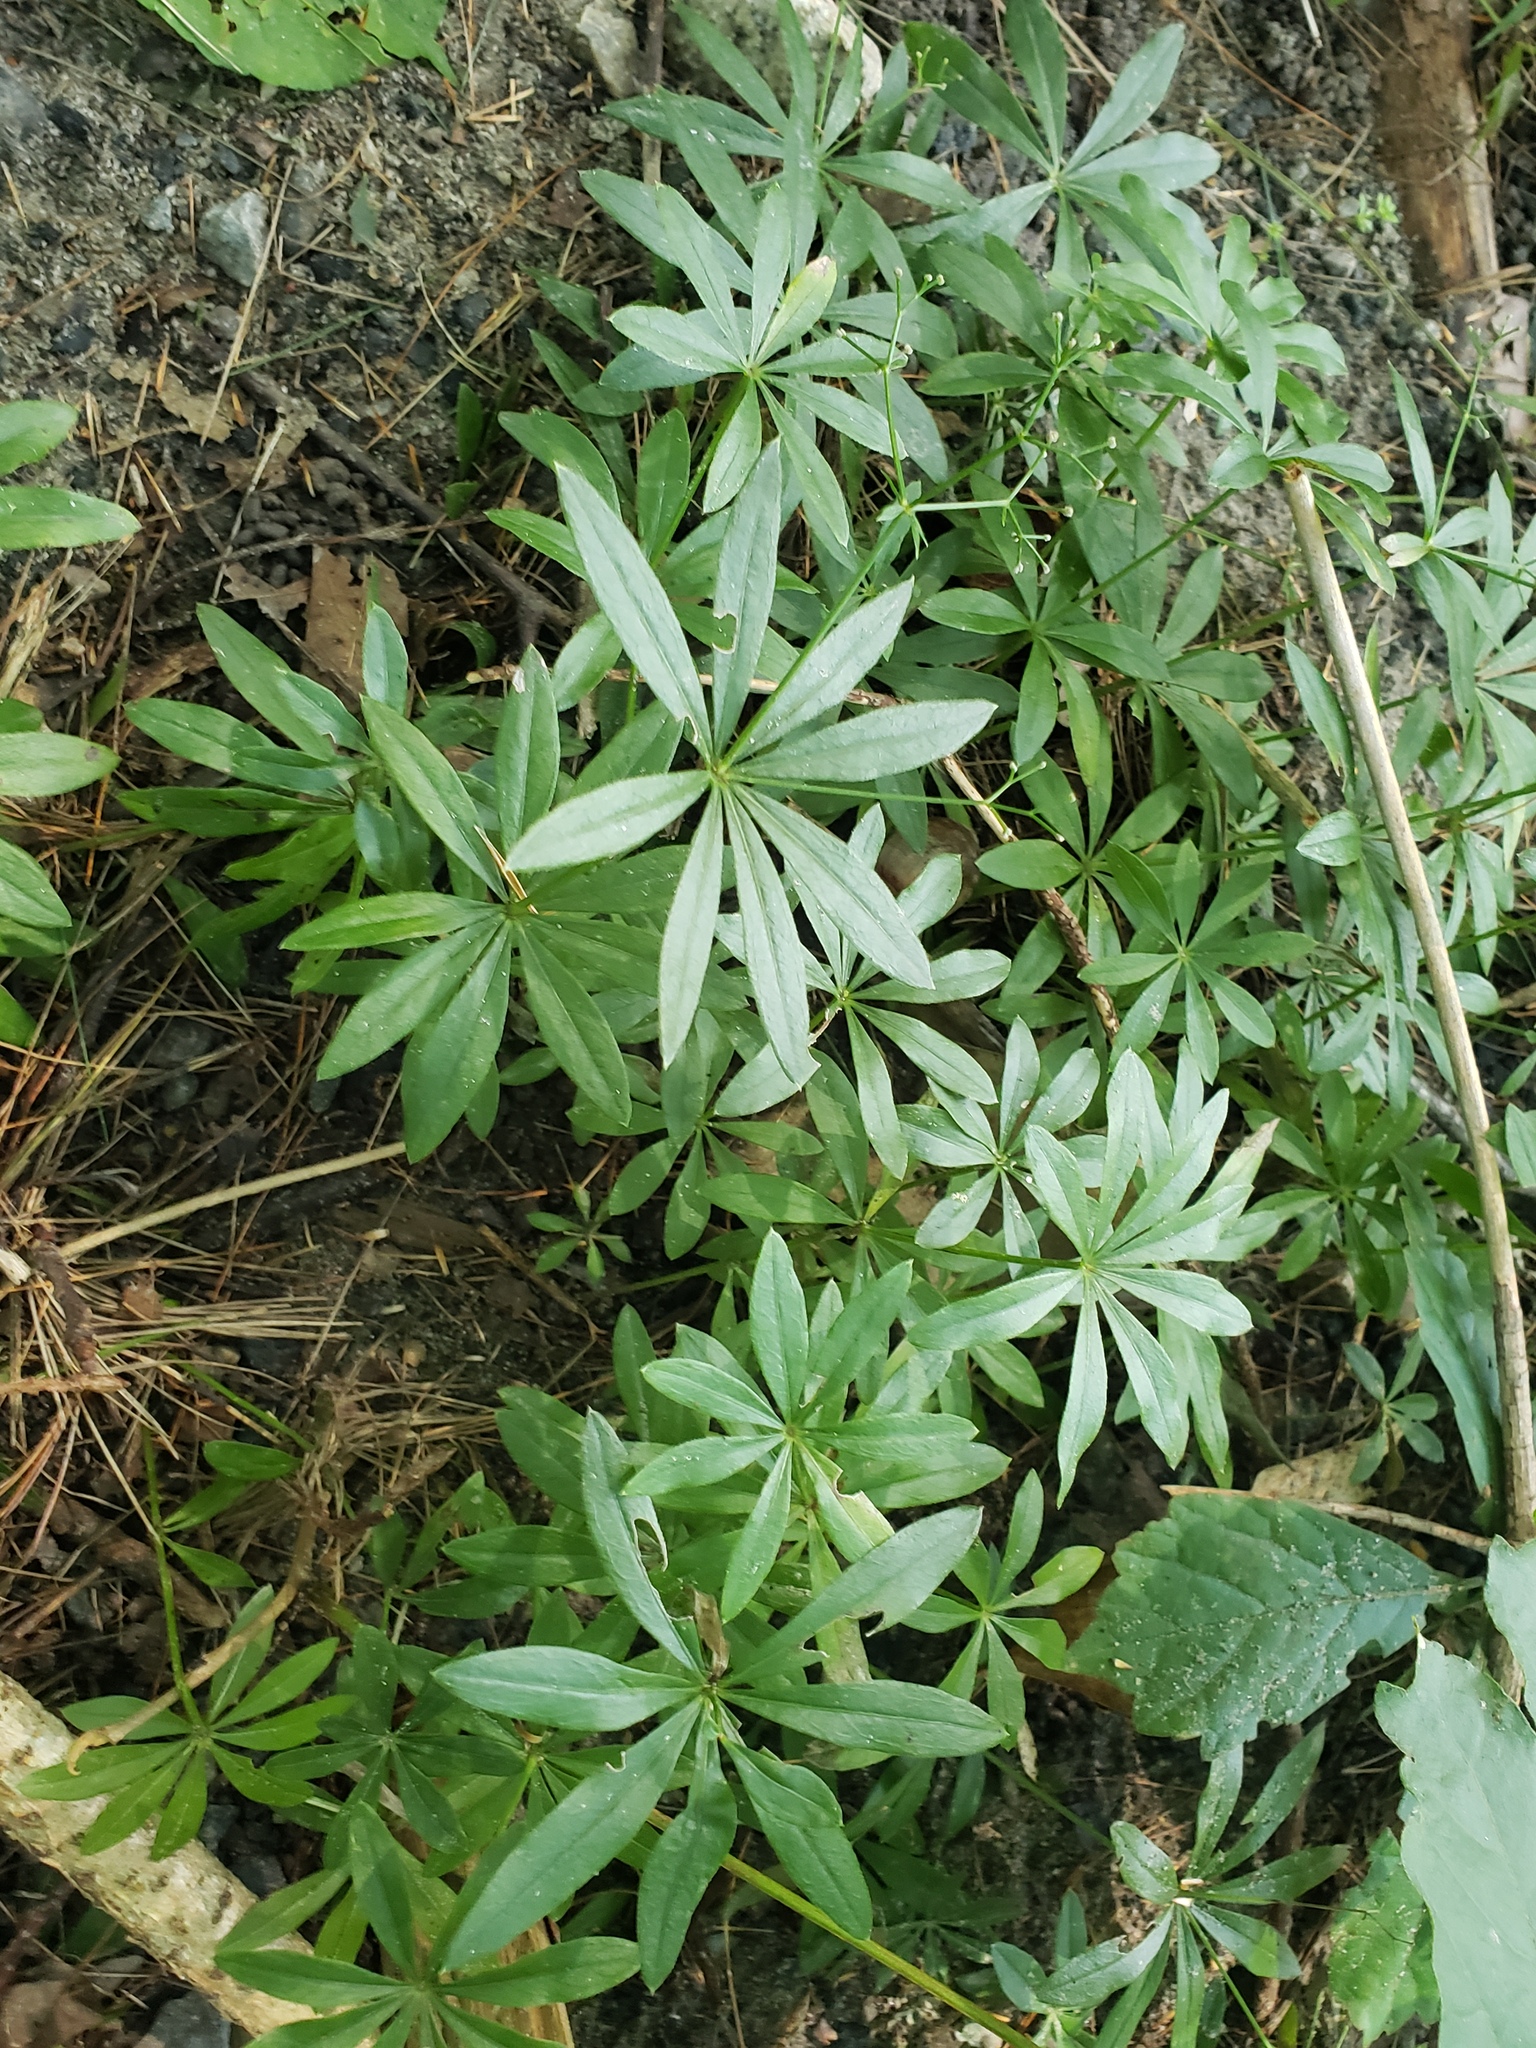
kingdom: Plantae
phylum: Tracheophyta
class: Magnoliopsida
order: Gentianales
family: Rubiaceae
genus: Galium
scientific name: Galium odoratum
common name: Sweet woodruff
